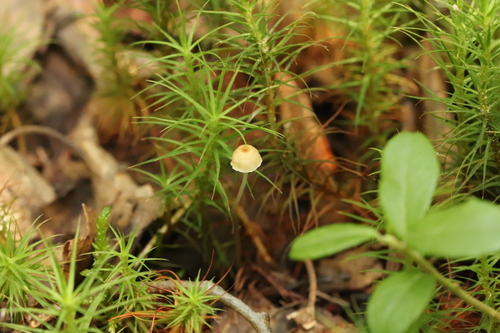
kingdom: Fungi
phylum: Basidiomycota
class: Agaricomycetes
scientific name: Agaricomycetes
